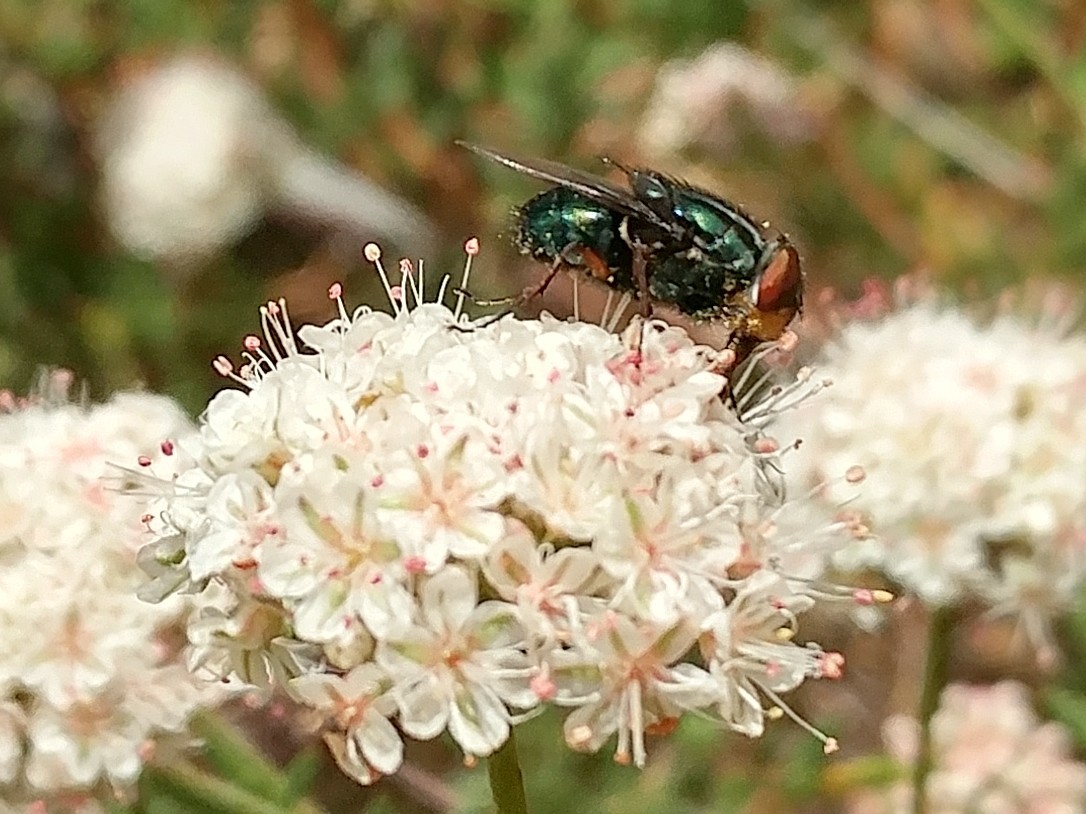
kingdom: Animalia
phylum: Arthropoda
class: Insecta
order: Diptera
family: Calliphoridae
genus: Compsomyiops
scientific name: Compsomyiops callipes
